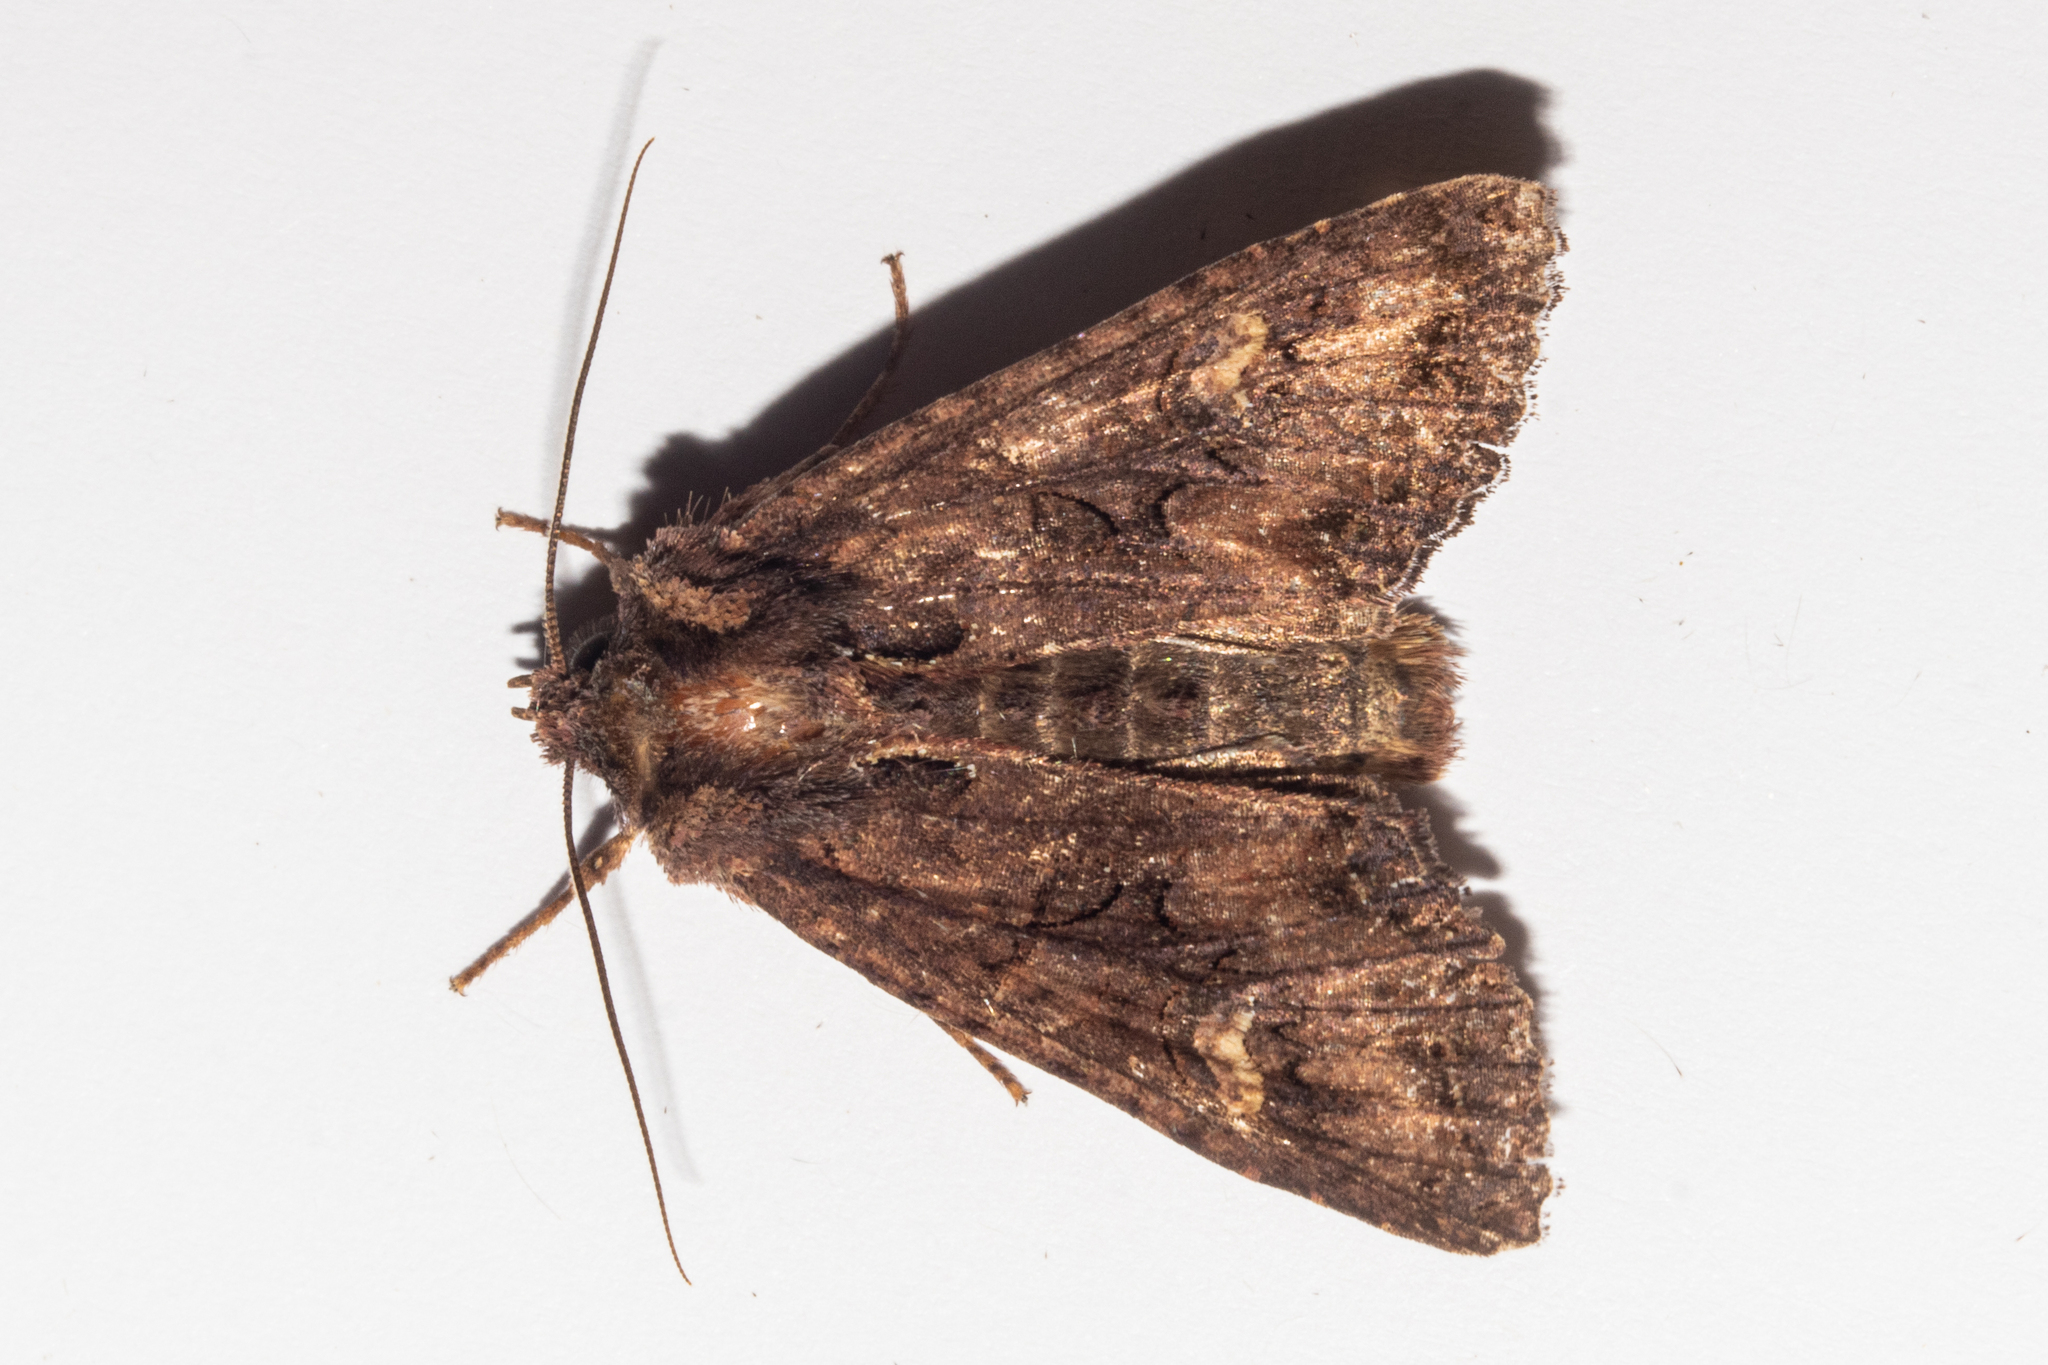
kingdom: Animalia
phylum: Arthropoda
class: Insecta
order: Lepidoptera
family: Noctuidae
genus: Meterana
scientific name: Meterana dotata
